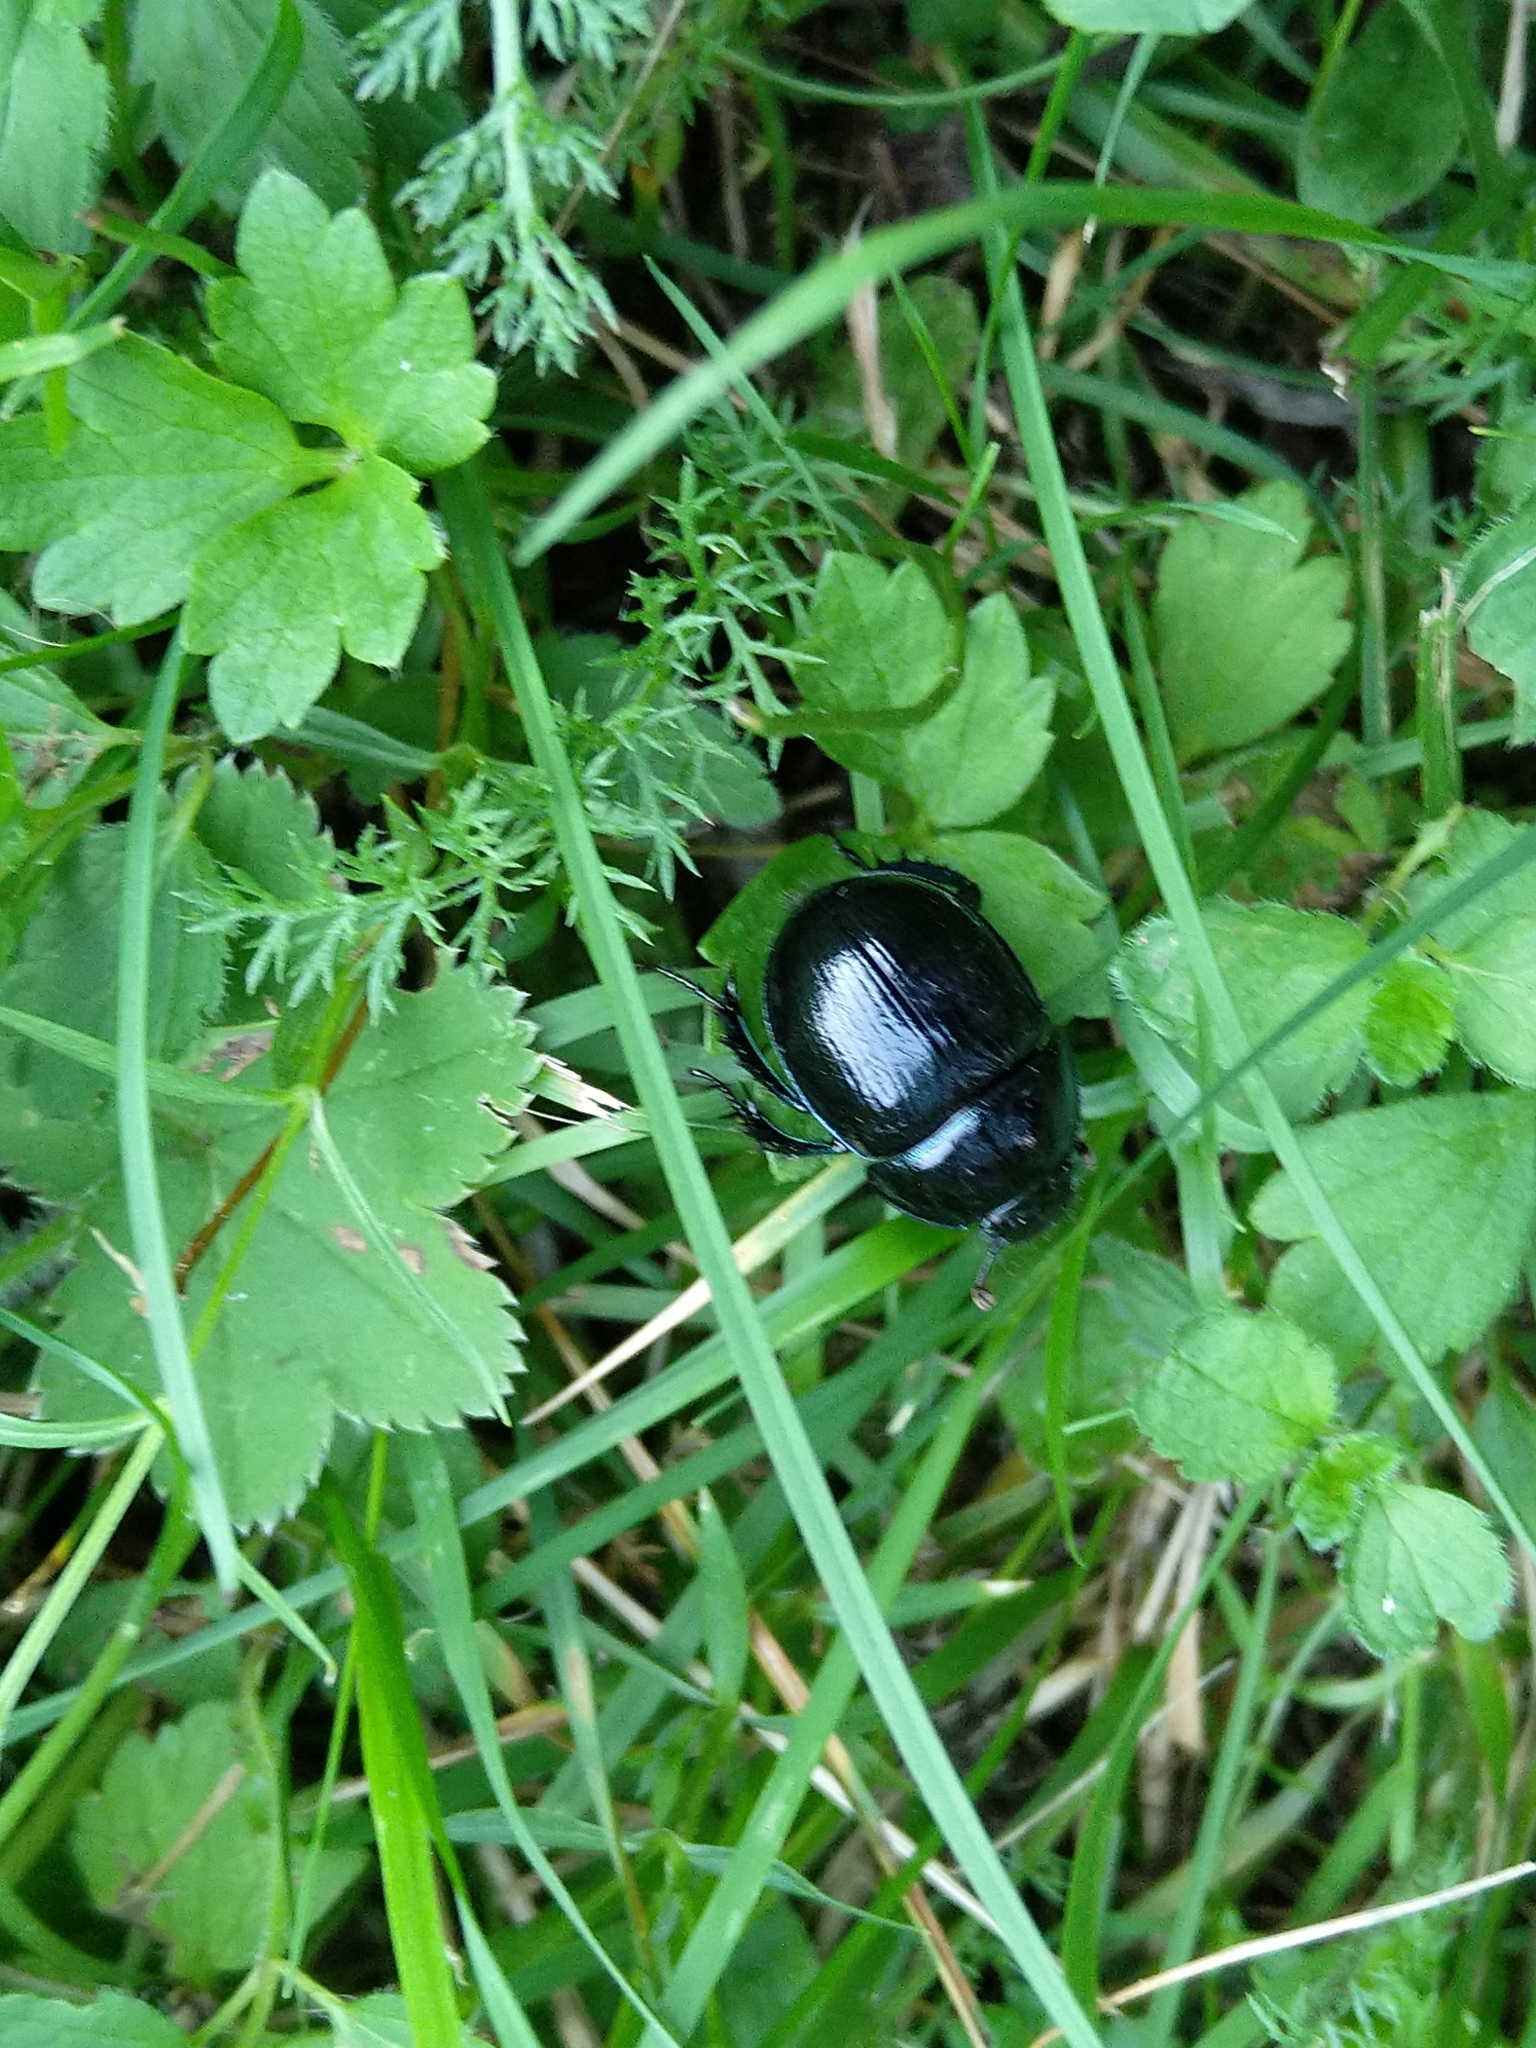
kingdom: Animalia
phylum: Arthropoda
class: Insecta
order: Coleoptera
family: Geotrupidae
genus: Anoplotrupes
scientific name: Anoplotrupes stercorosus
